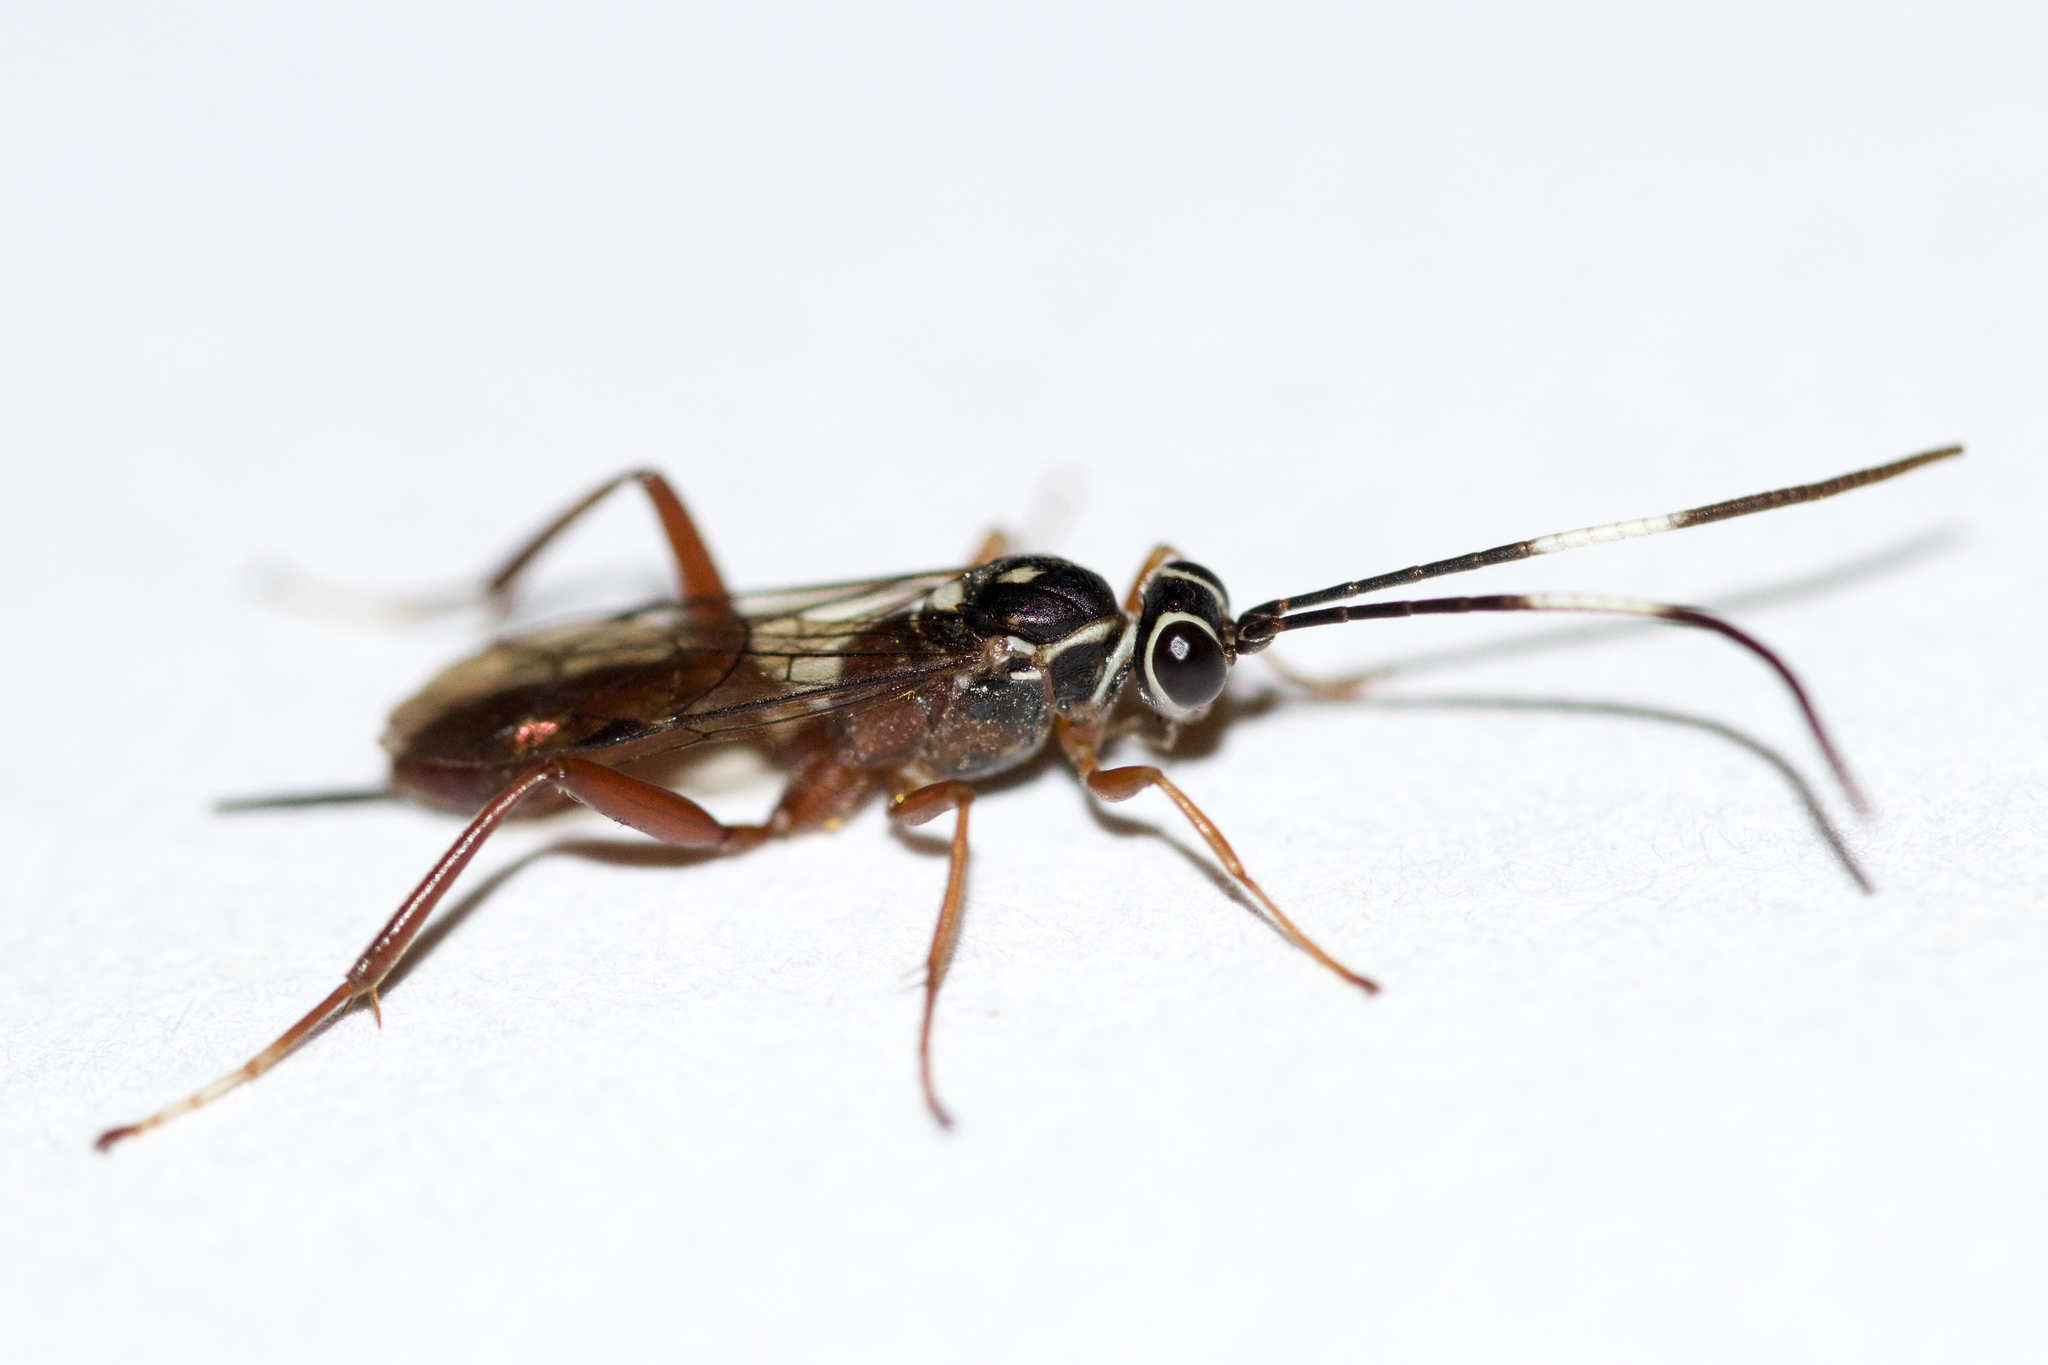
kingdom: Animalia
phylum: Arthropoda
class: Insecta
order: Hymenoptera
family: Ichneumonidae
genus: Ischnus
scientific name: Ischnus inquisitorius
